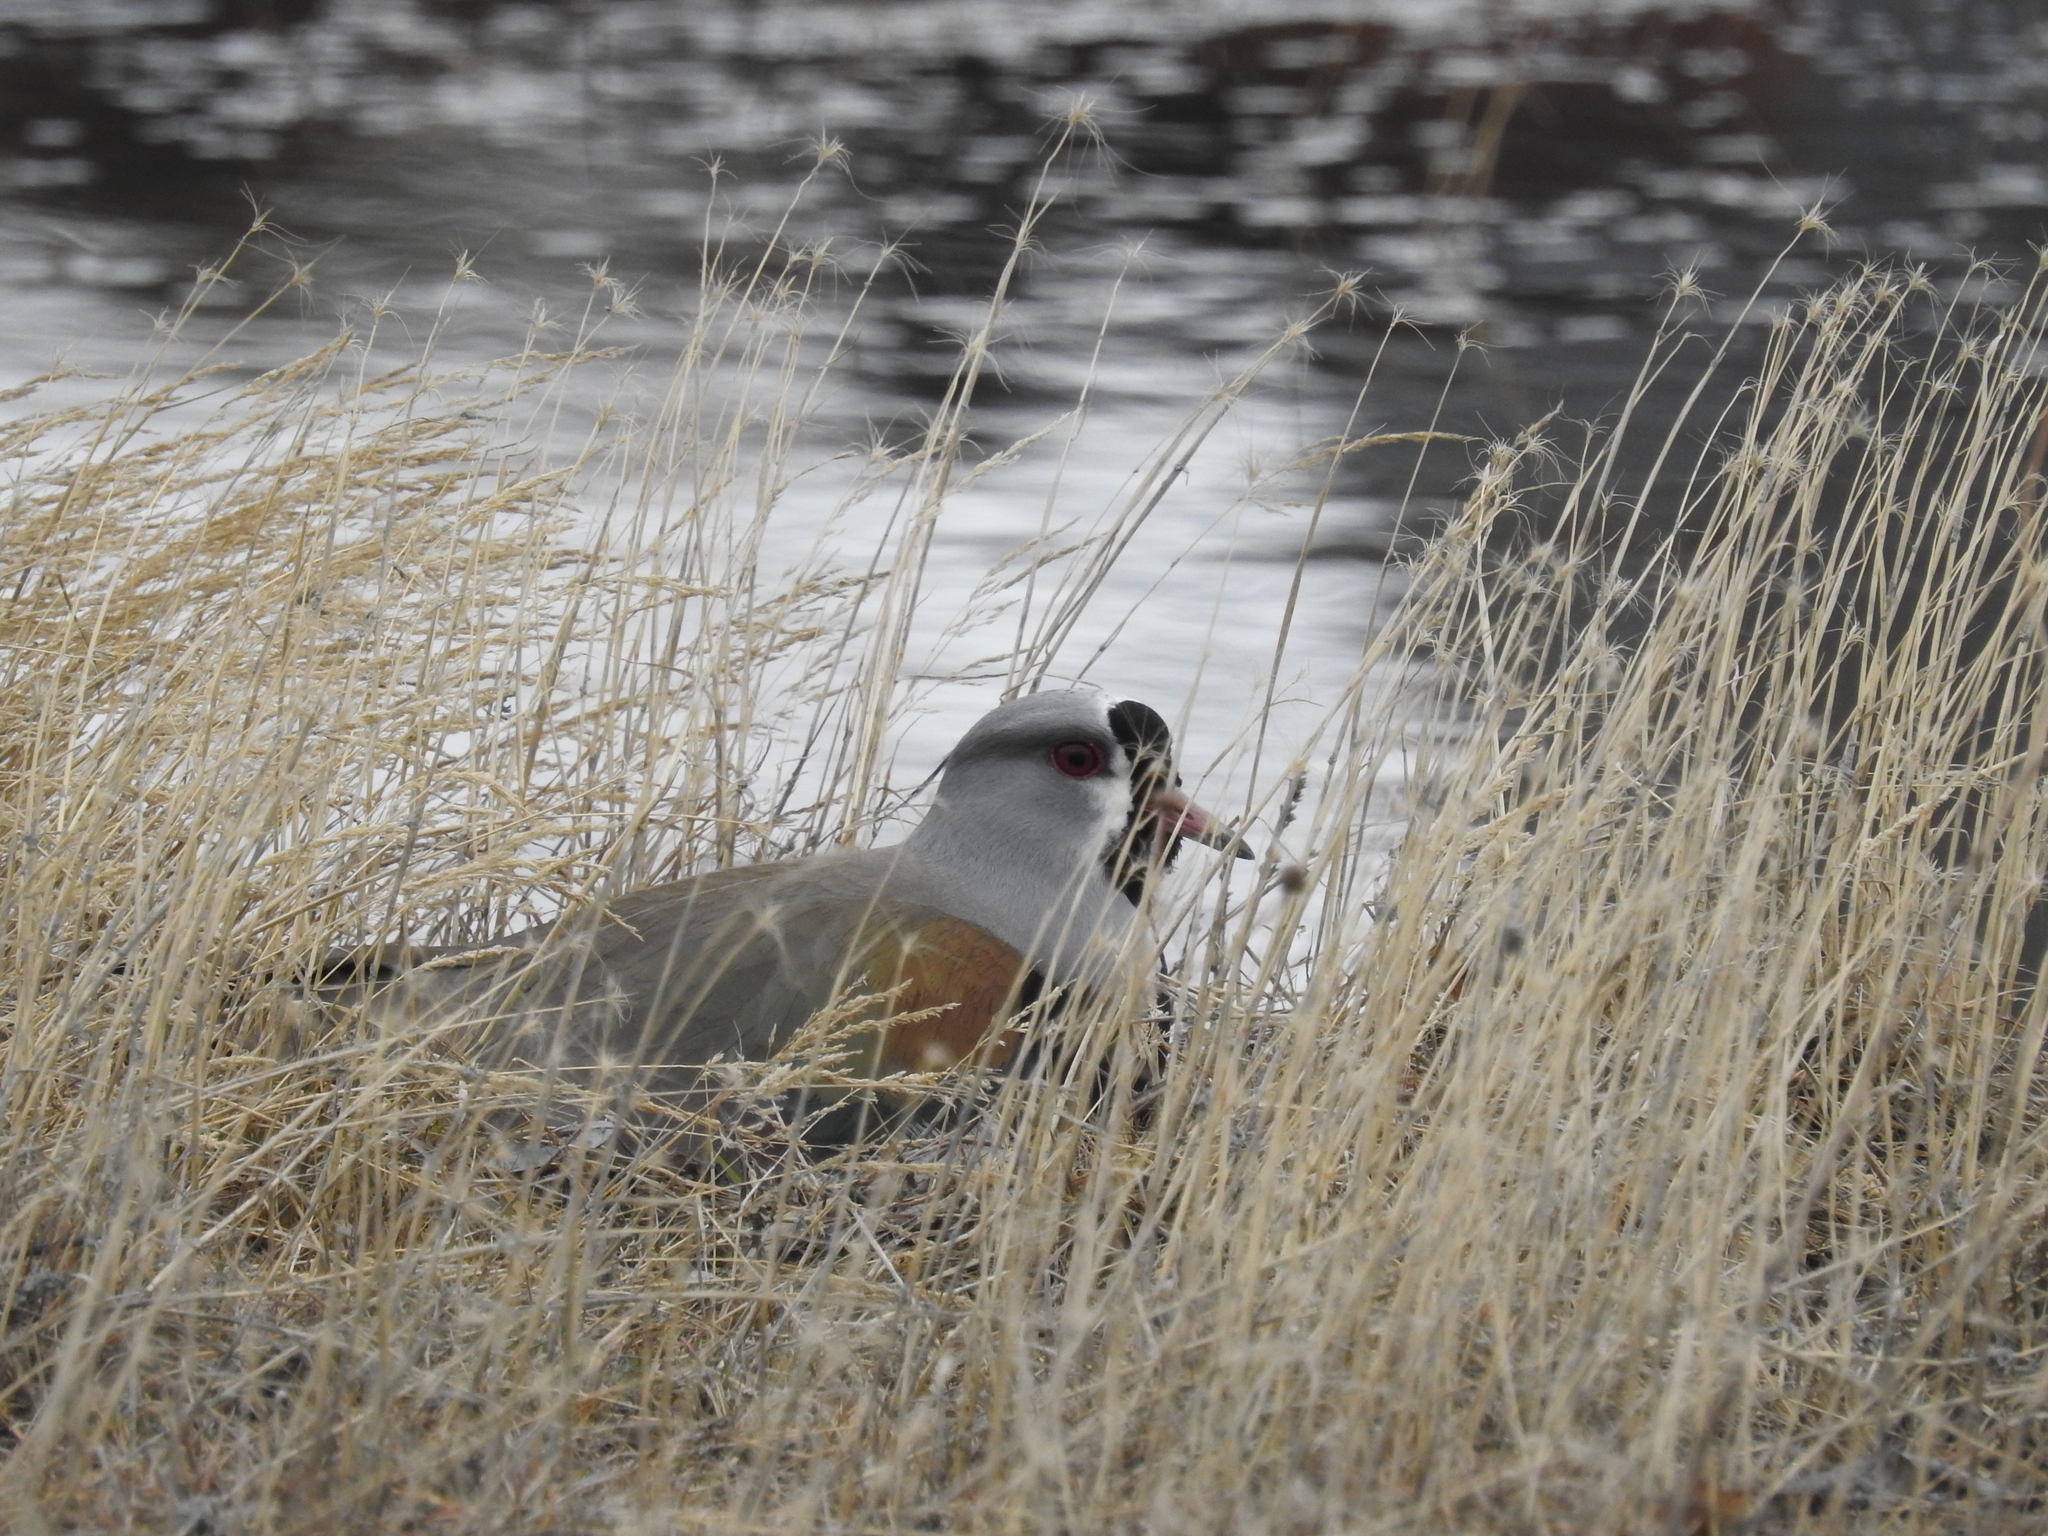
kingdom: Animalia
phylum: Chordata
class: Aves
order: Charadriiformes
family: Charadriidae
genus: Vanellus
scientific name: Vanellus chilensis
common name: Southern lapwing
